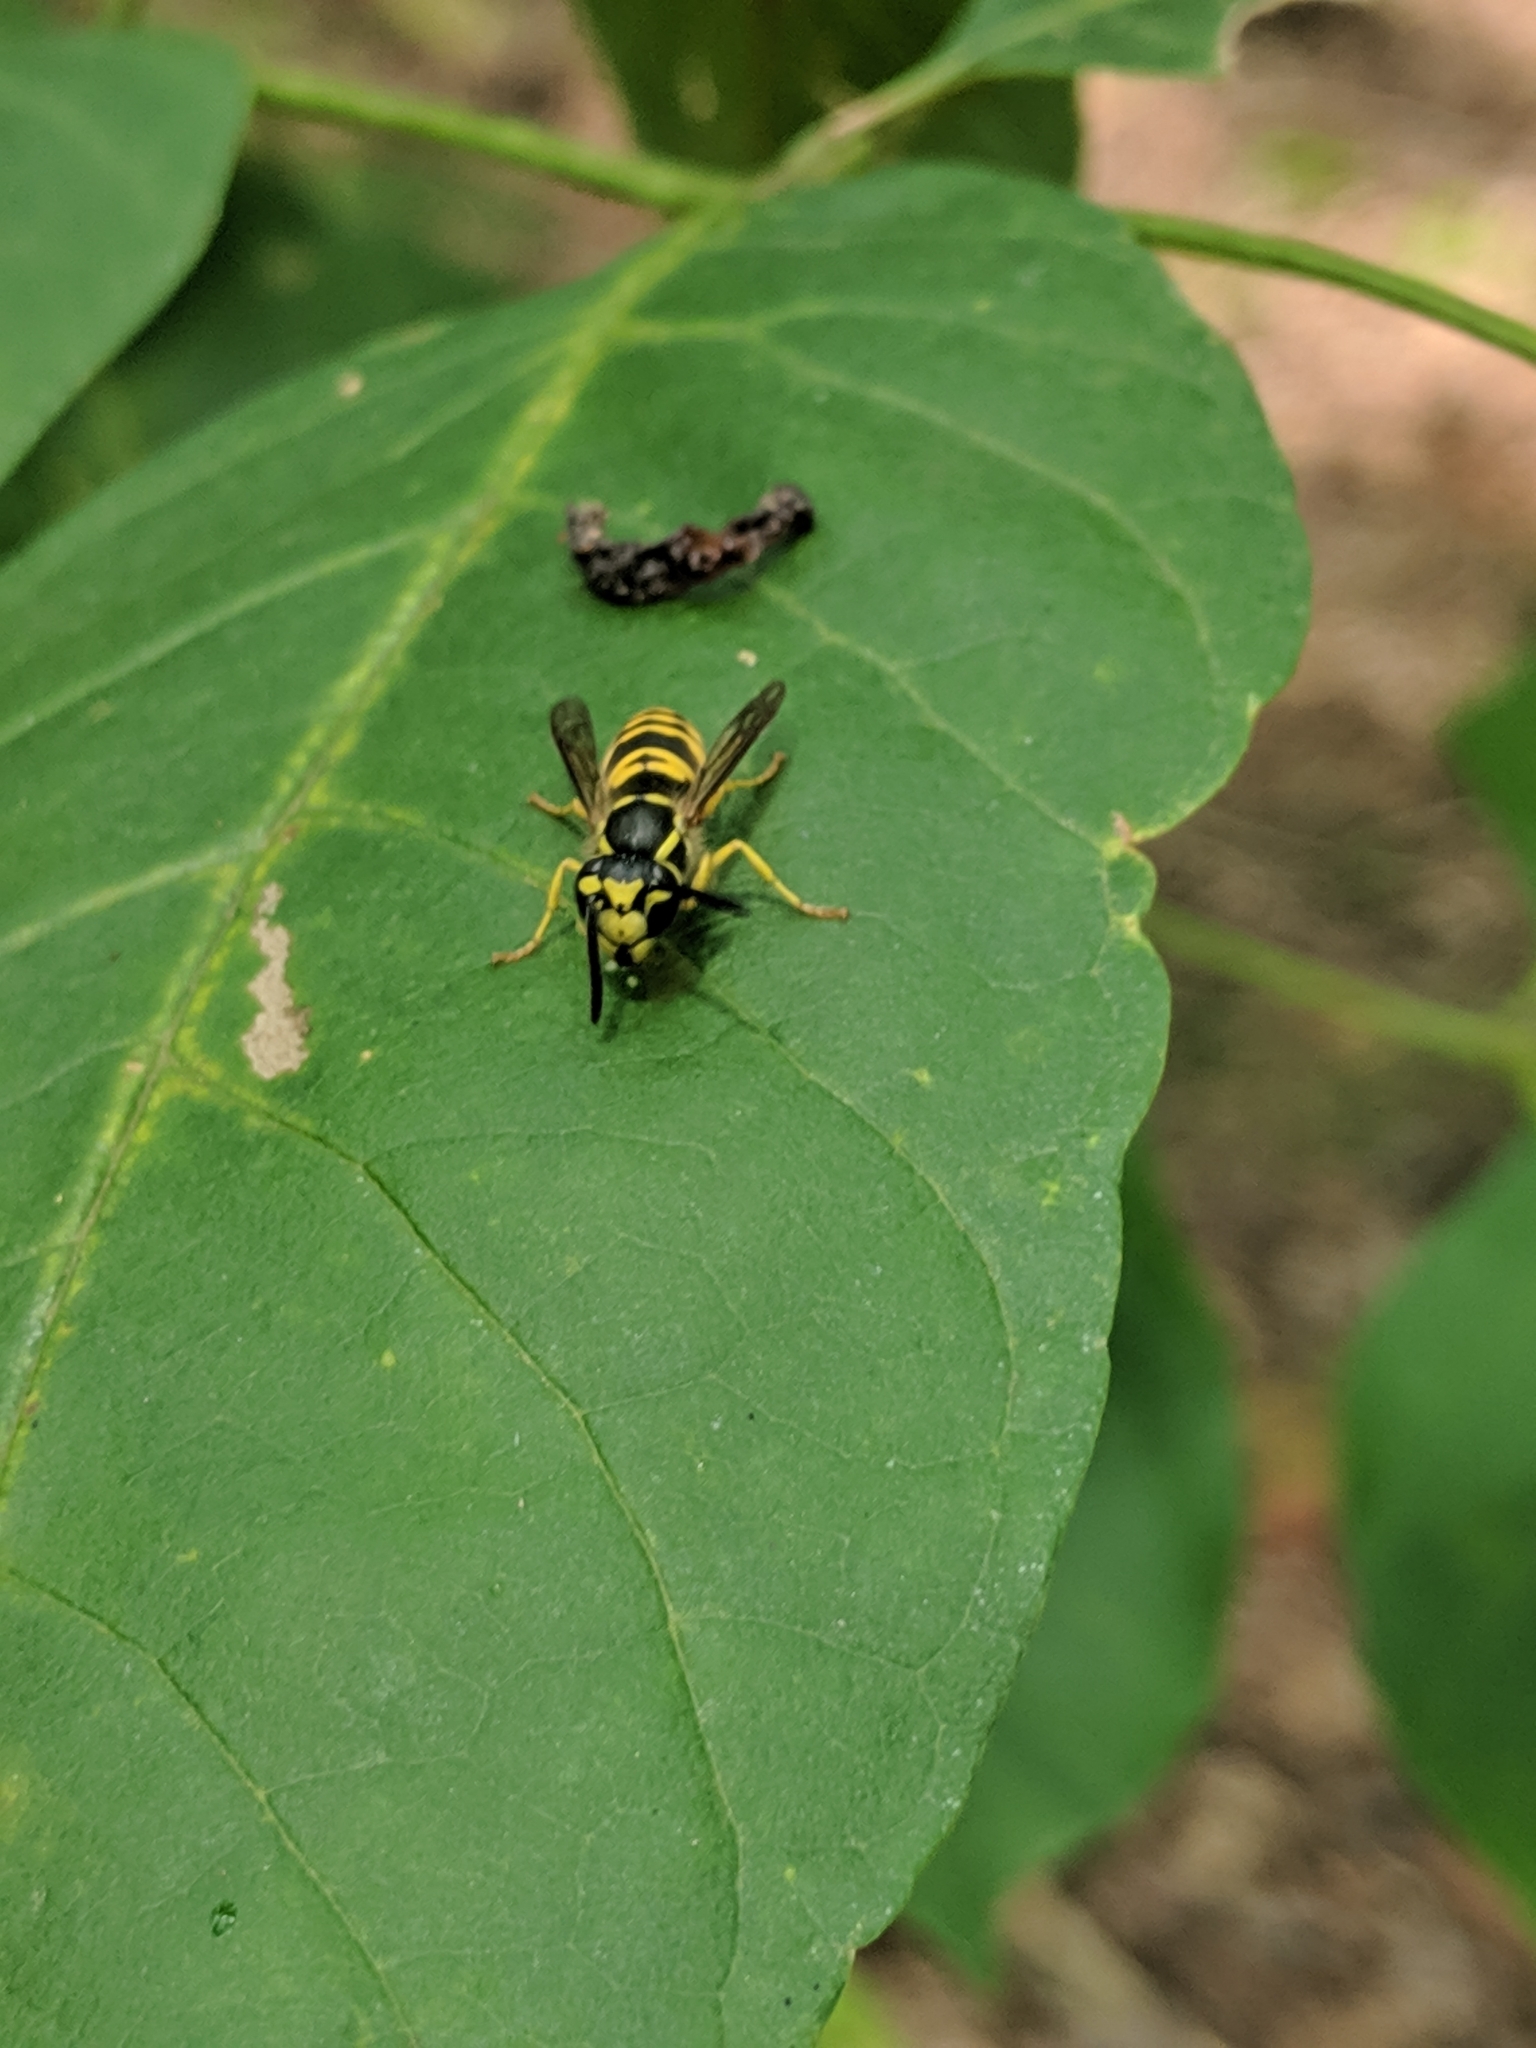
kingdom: Animalia
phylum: Arthropoda
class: Insecta
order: Hymenoptera
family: Vespidae
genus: Vespula
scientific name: Vespula maculifrons
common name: Eastern yellowjacket
